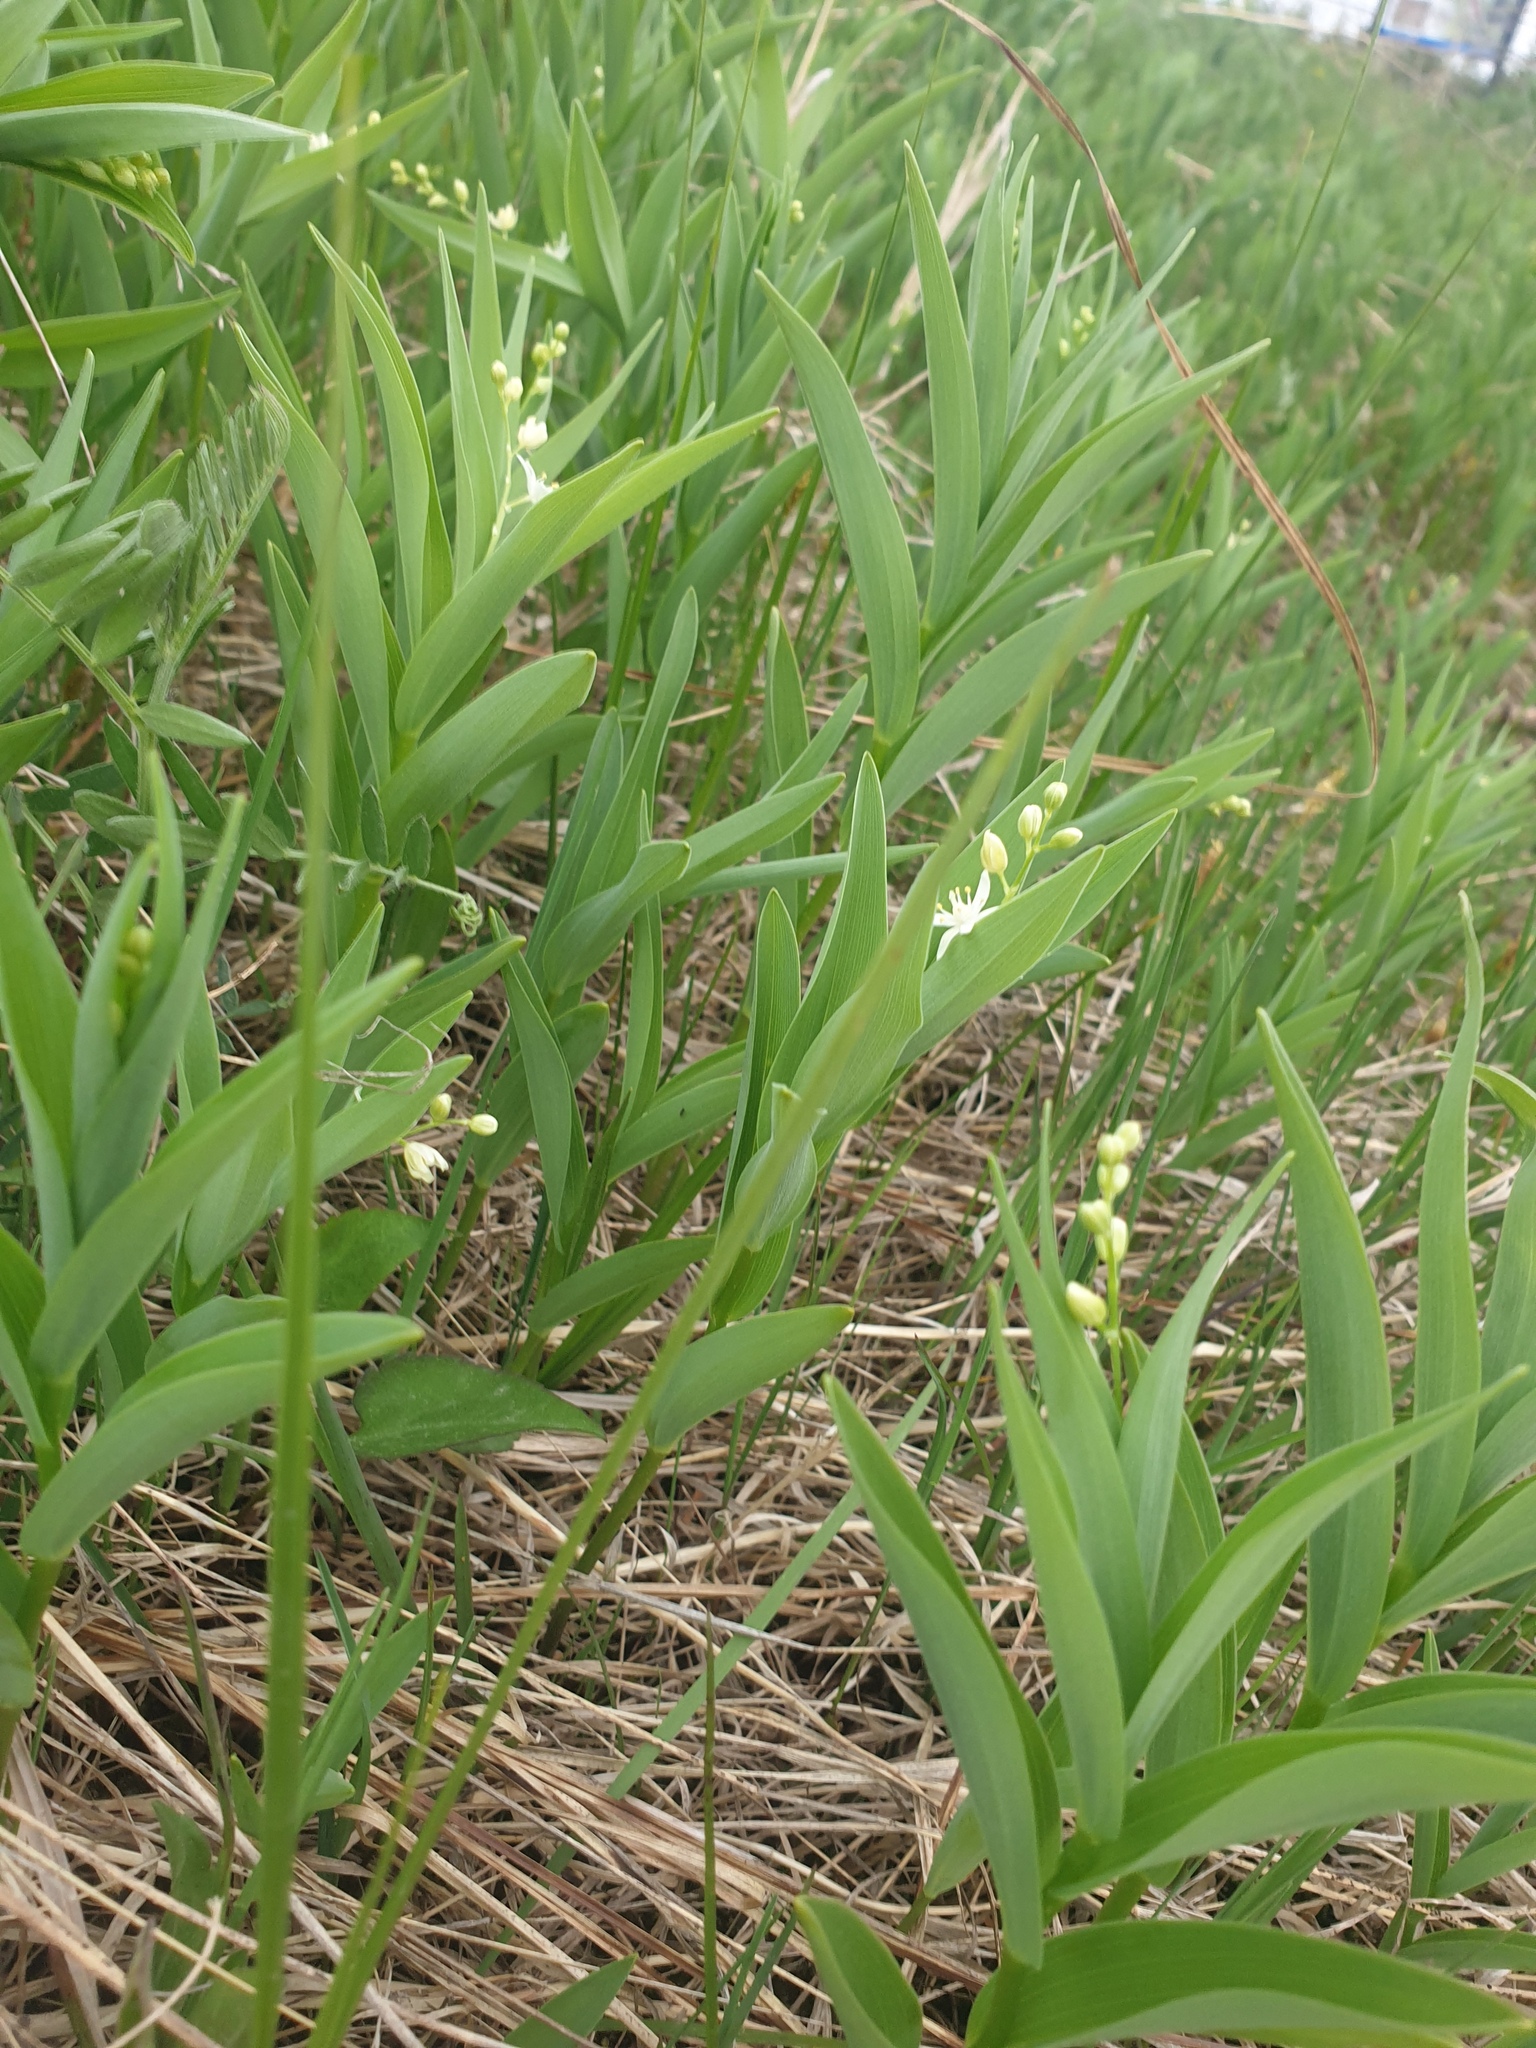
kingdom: Plantae
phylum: Tracheophyta
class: Liliopsida
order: Asparagales
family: Asparagaceae
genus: Maianthemum
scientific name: Maianthemum stellatum
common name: Little false solomon's seal
